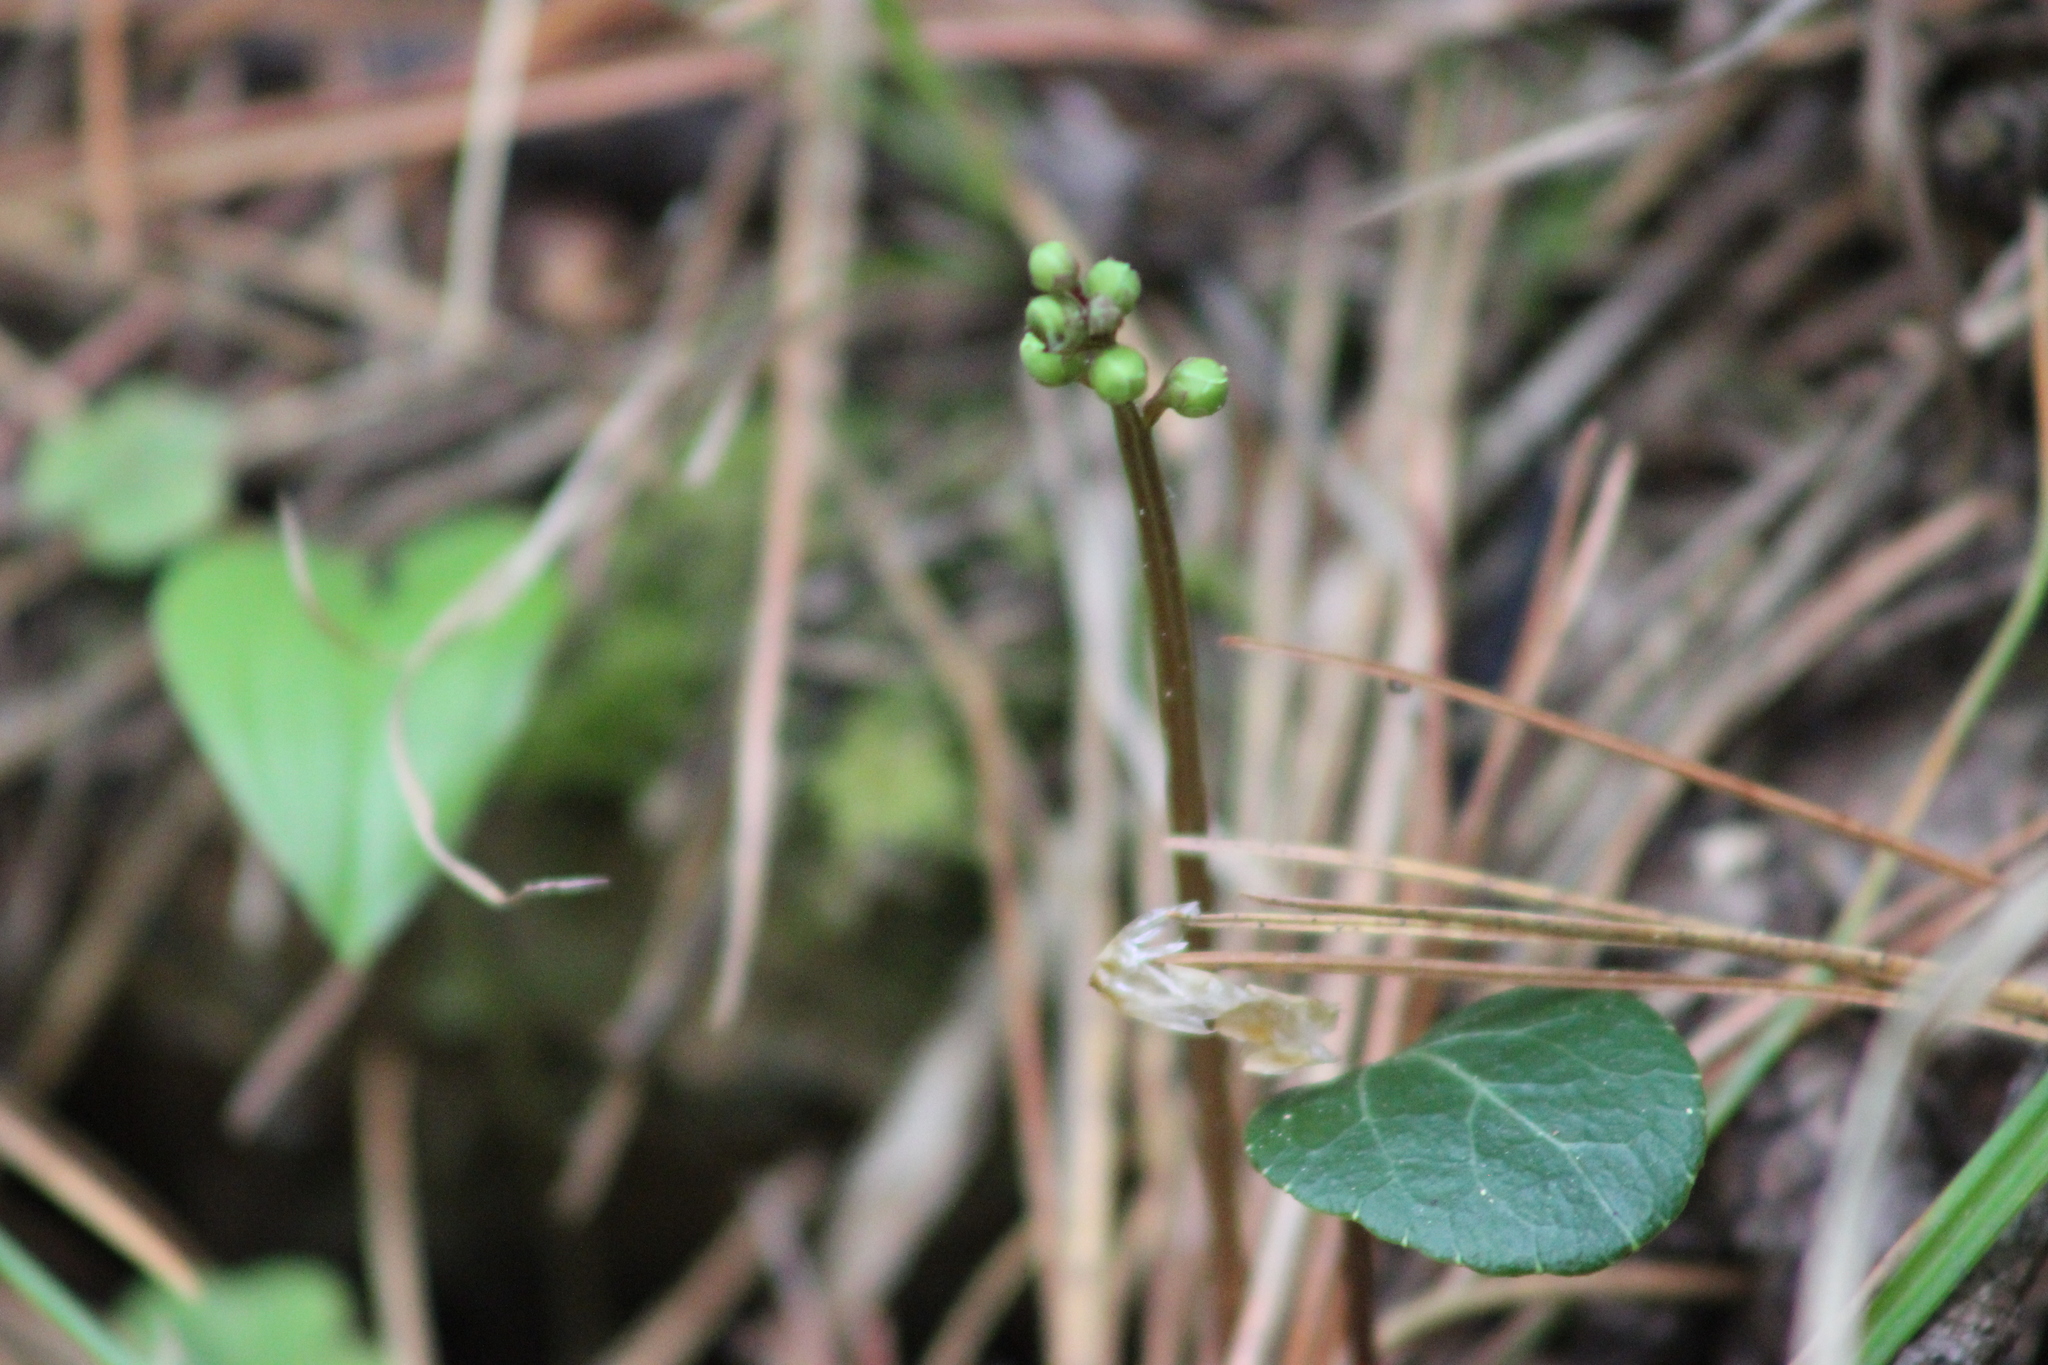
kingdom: Plantae
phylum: Tracheophyta
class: Magnoliopsida
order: Ericales
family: Ericaceae
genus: Pyrola
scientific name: Pyrola chlorantha
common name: Green wintergreen
